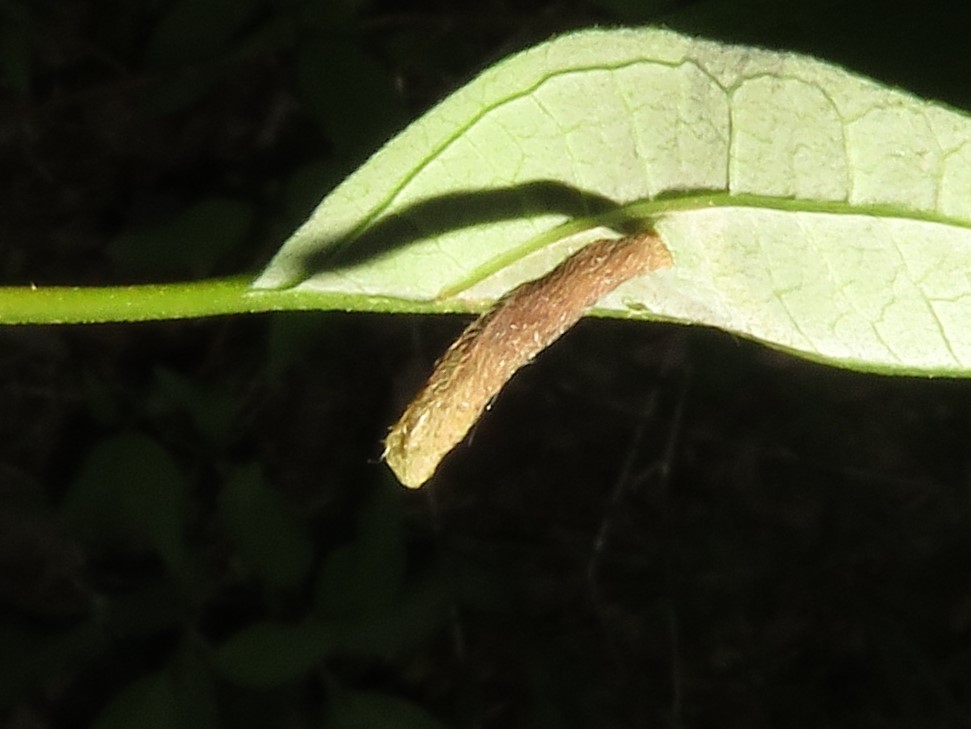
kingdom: Animalia
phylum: Arthropoda
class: Insecta
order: Lepidoptera
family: Coleophoridae
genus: Coleophora
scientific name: Coleophora cornella
